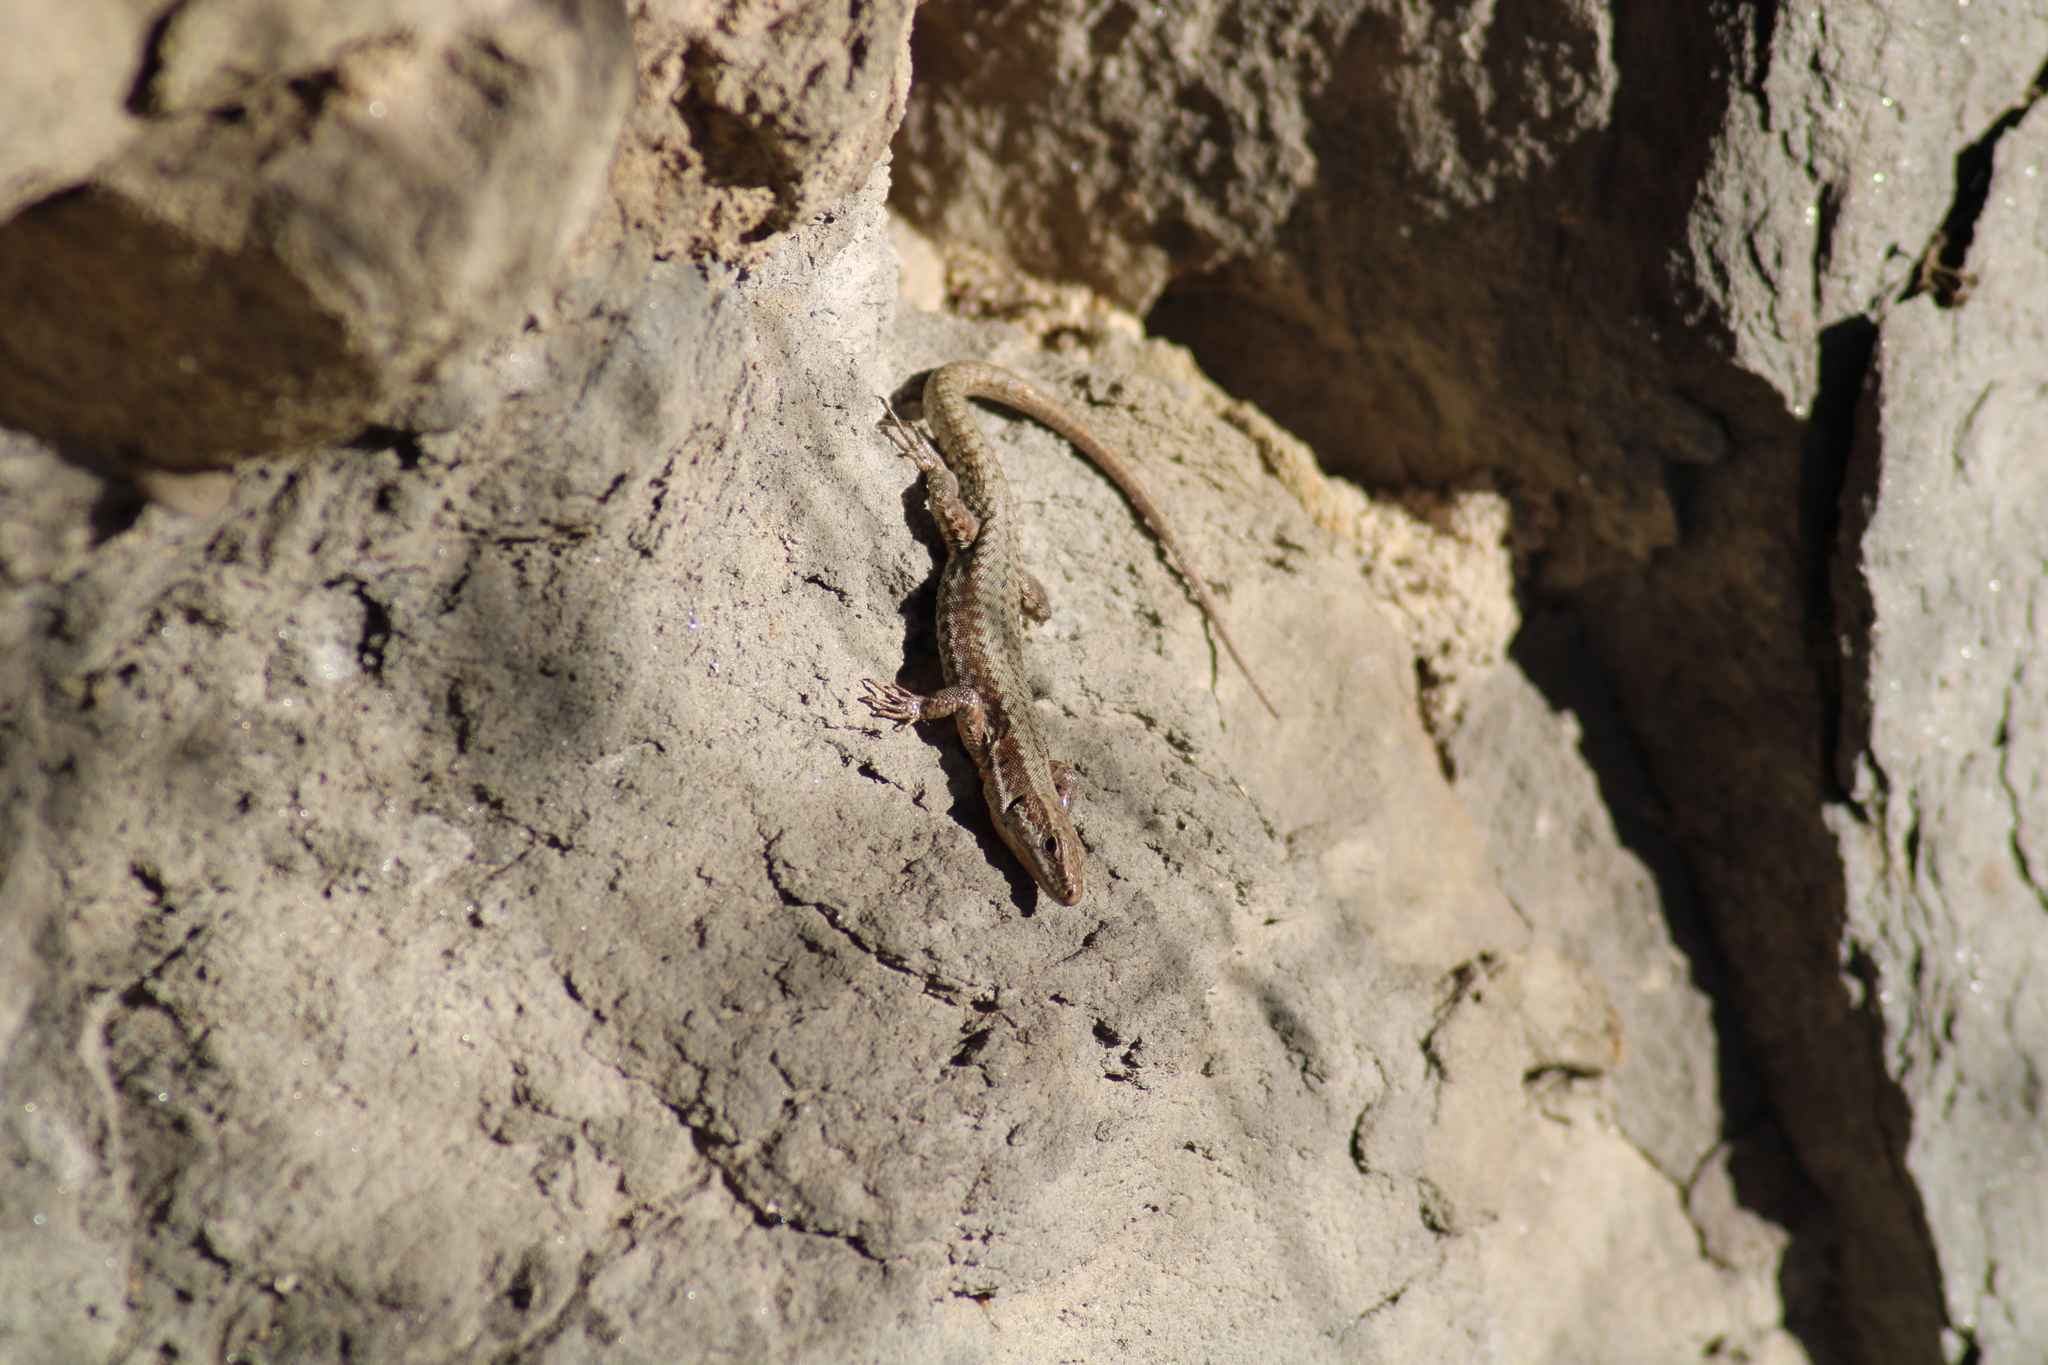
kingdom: Animalia
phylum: Chordata
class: Squamata
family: Lacertidae
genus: Podarcis
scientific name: Podarcis muralis
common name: Common wall lizard
